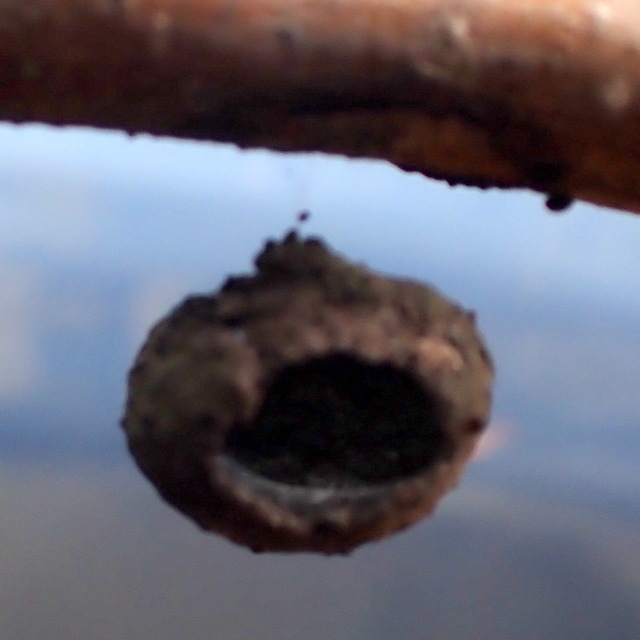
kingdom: Animalia
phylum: Arthropoda
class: Insecta
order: Hymenoptera
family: Vespidae
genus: Eumenes
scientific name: Eumenes
